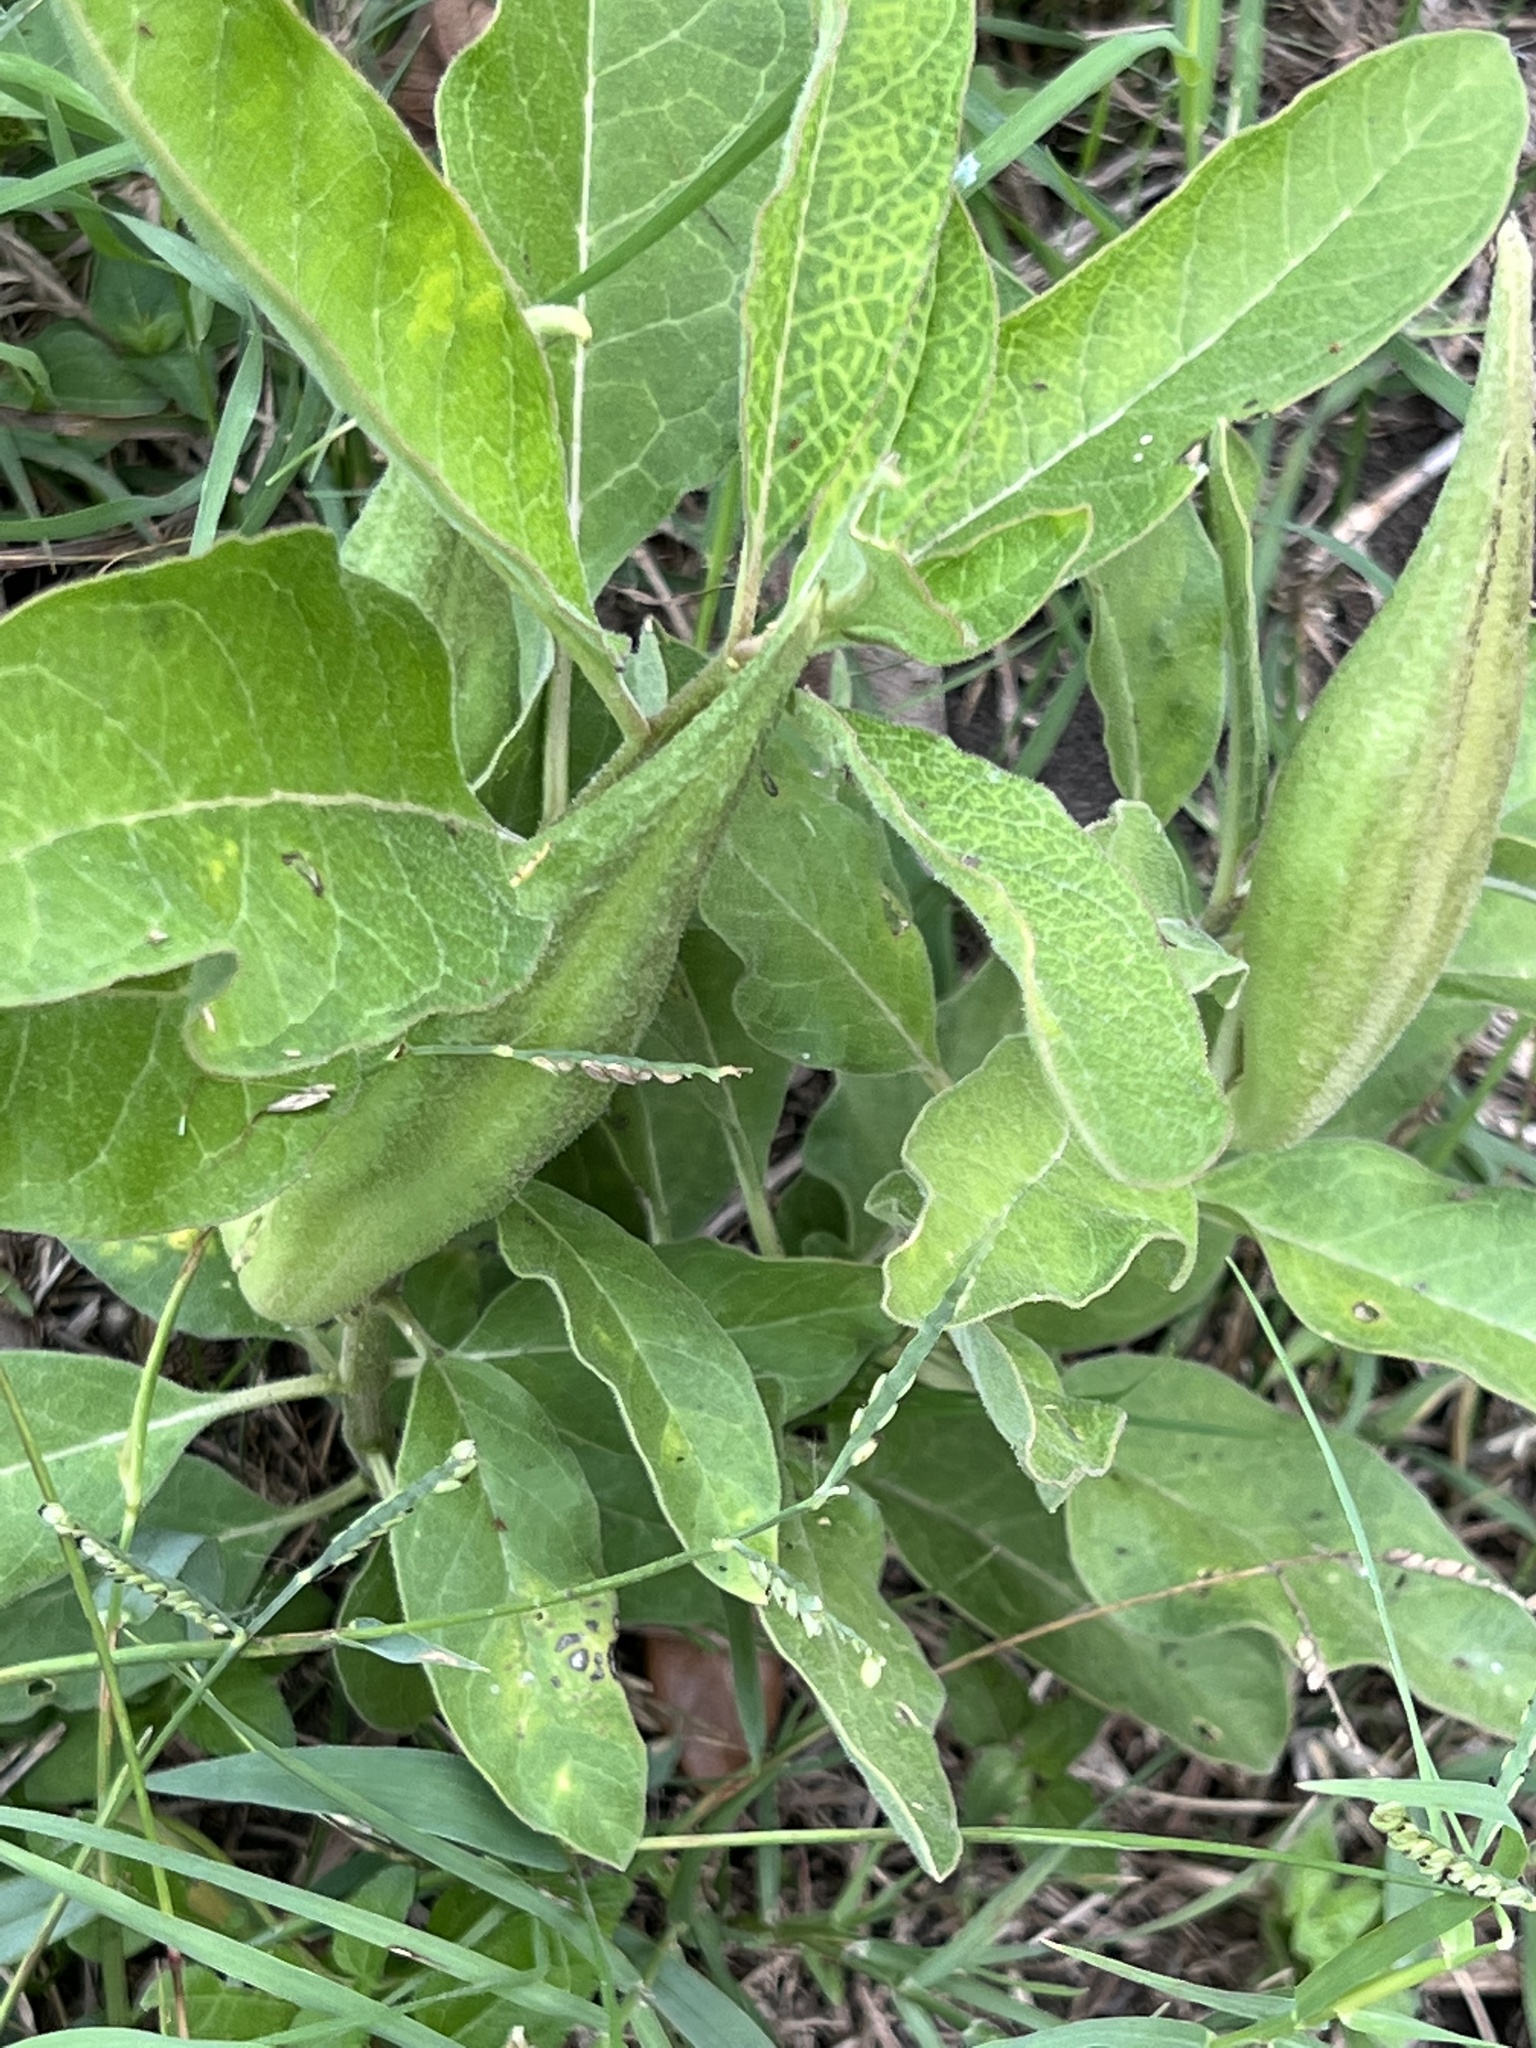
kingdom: Plantae
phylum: Tracheophyta
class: Magnoliopsida
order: Gentianales
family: Apocynaceae
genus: Asclepias
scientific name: Asclepias oenotheroides
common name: Zizotes milkweed
